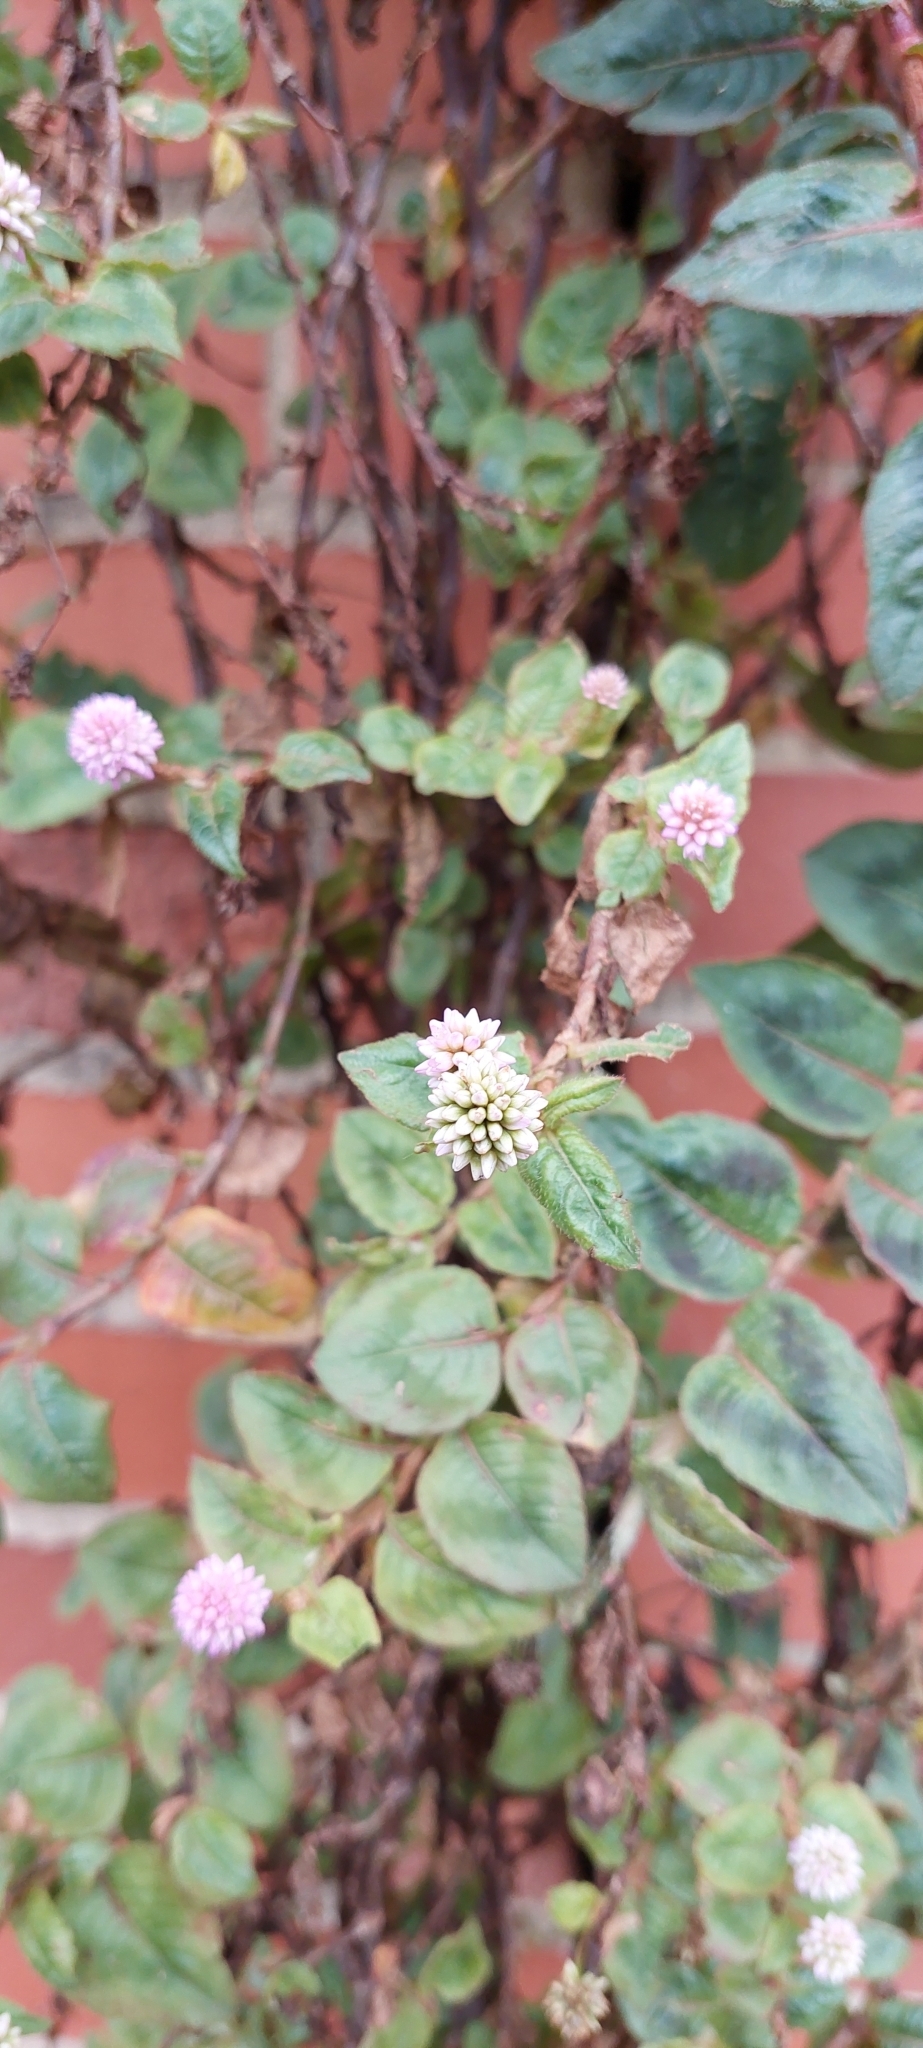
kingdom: Plantae
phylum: Tracheophyta
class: Magnoliopsida
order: Caryophyllales
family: Polygonaceae
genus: Persicaria
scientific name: Persicaria capitata
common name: Pinkhead smartweed
